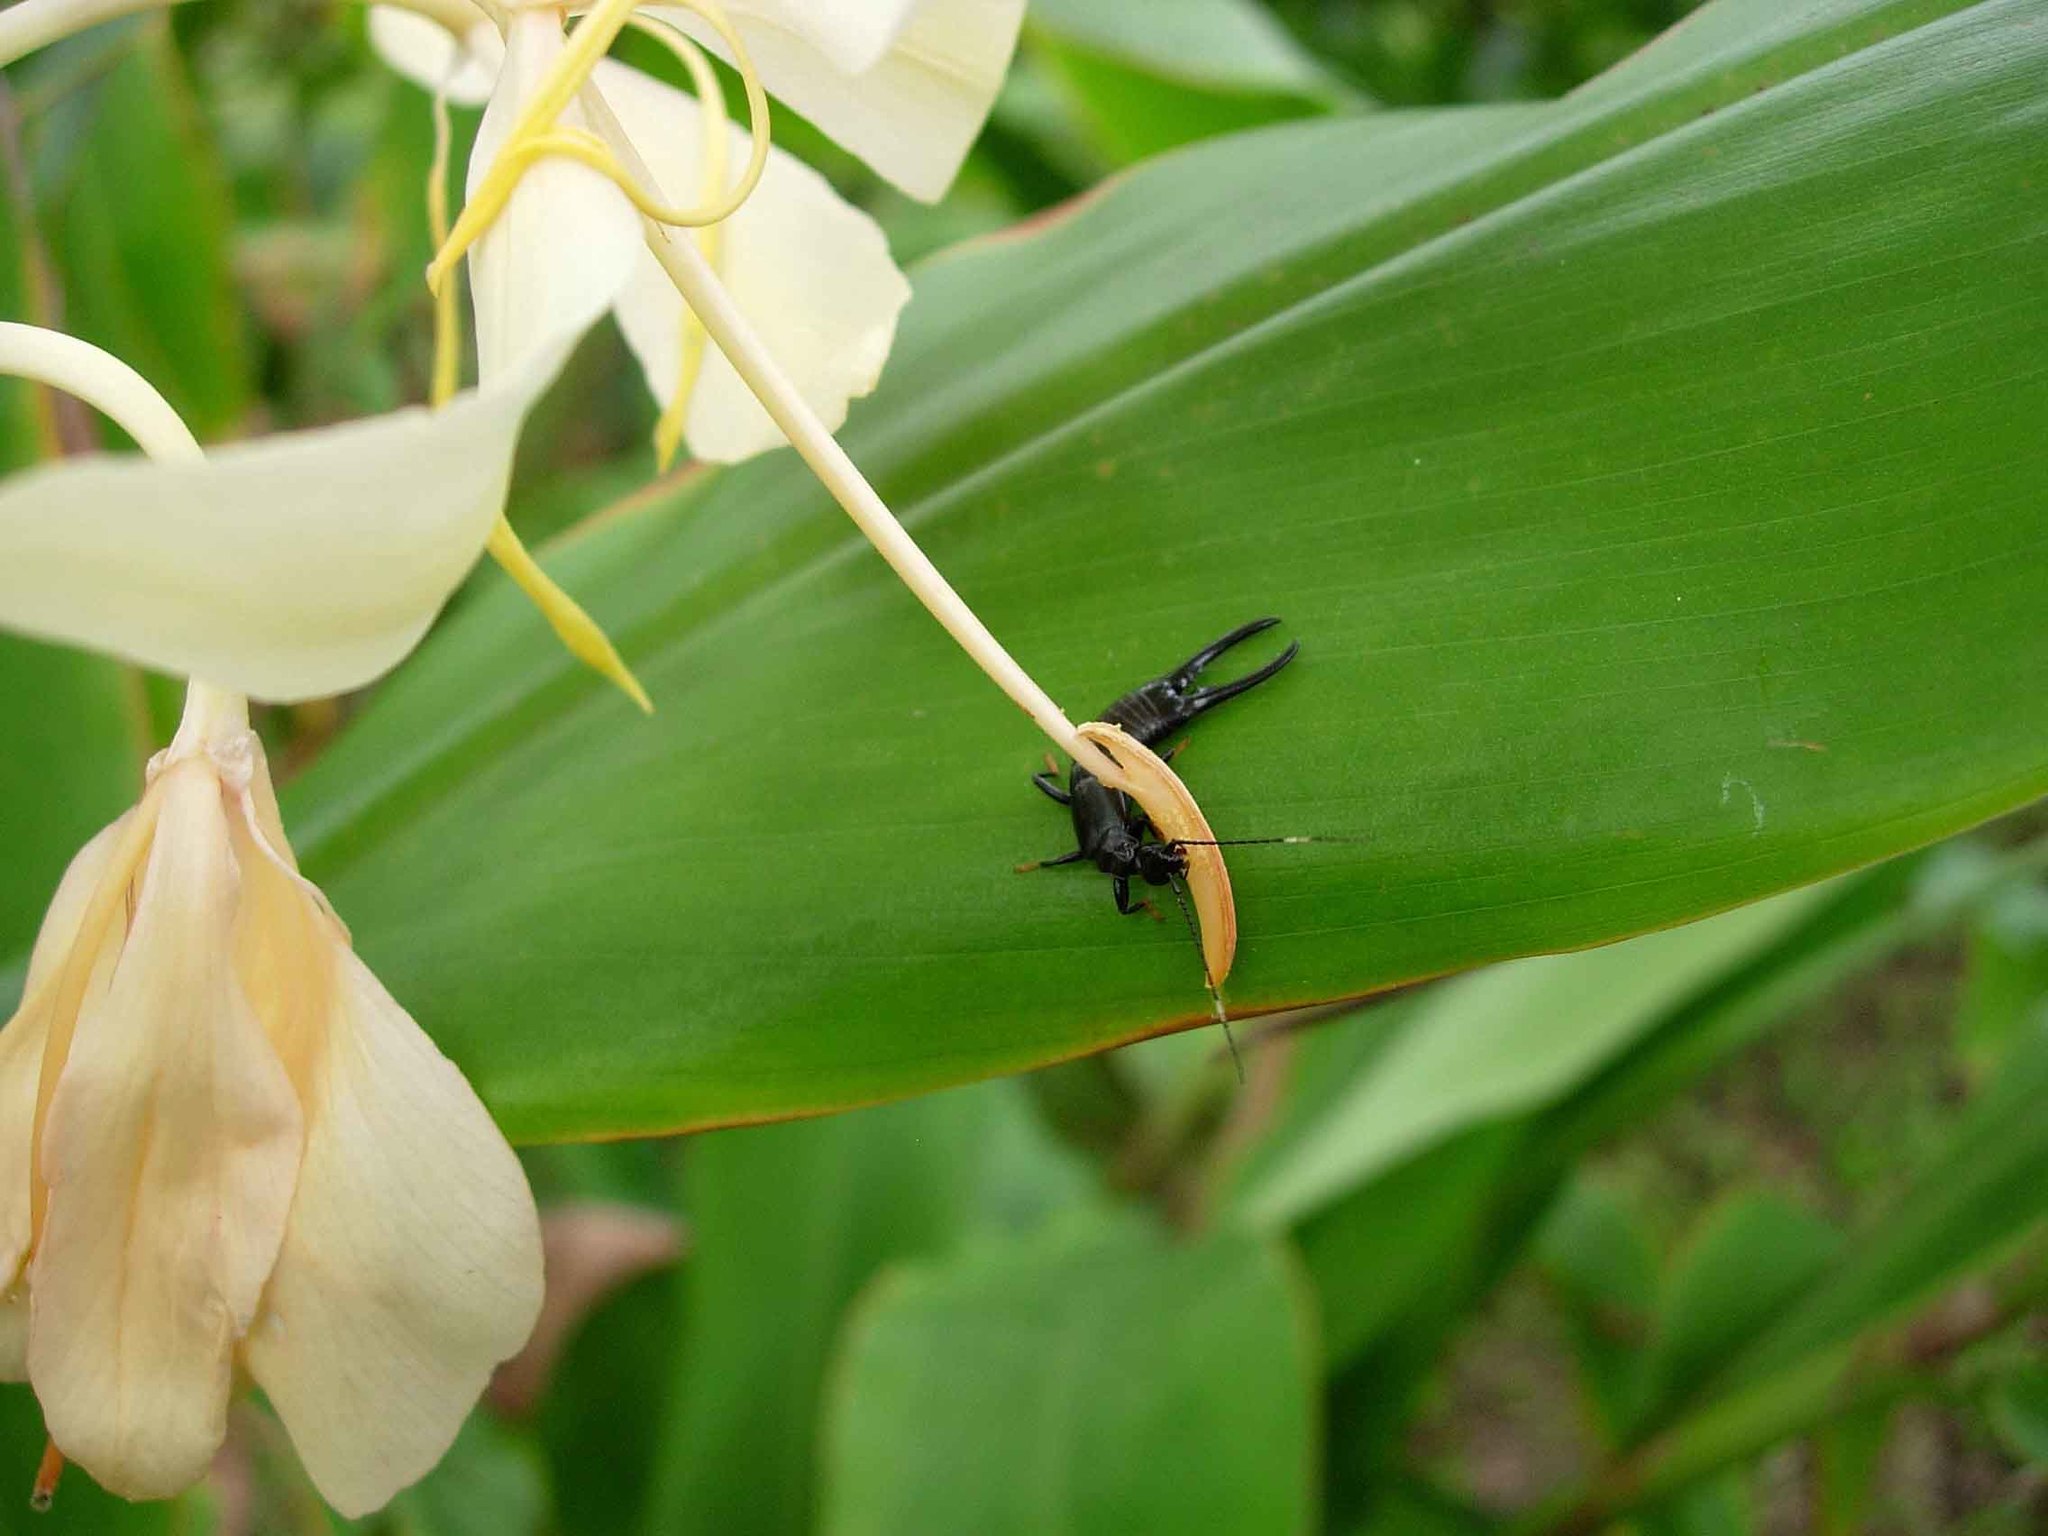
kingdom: Animalia
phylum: Arthropoda
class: Insecta
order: Dermaptera
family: Chelisochidae
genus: Chelisoches
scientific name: Chelisoches morio
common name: Black earwig
